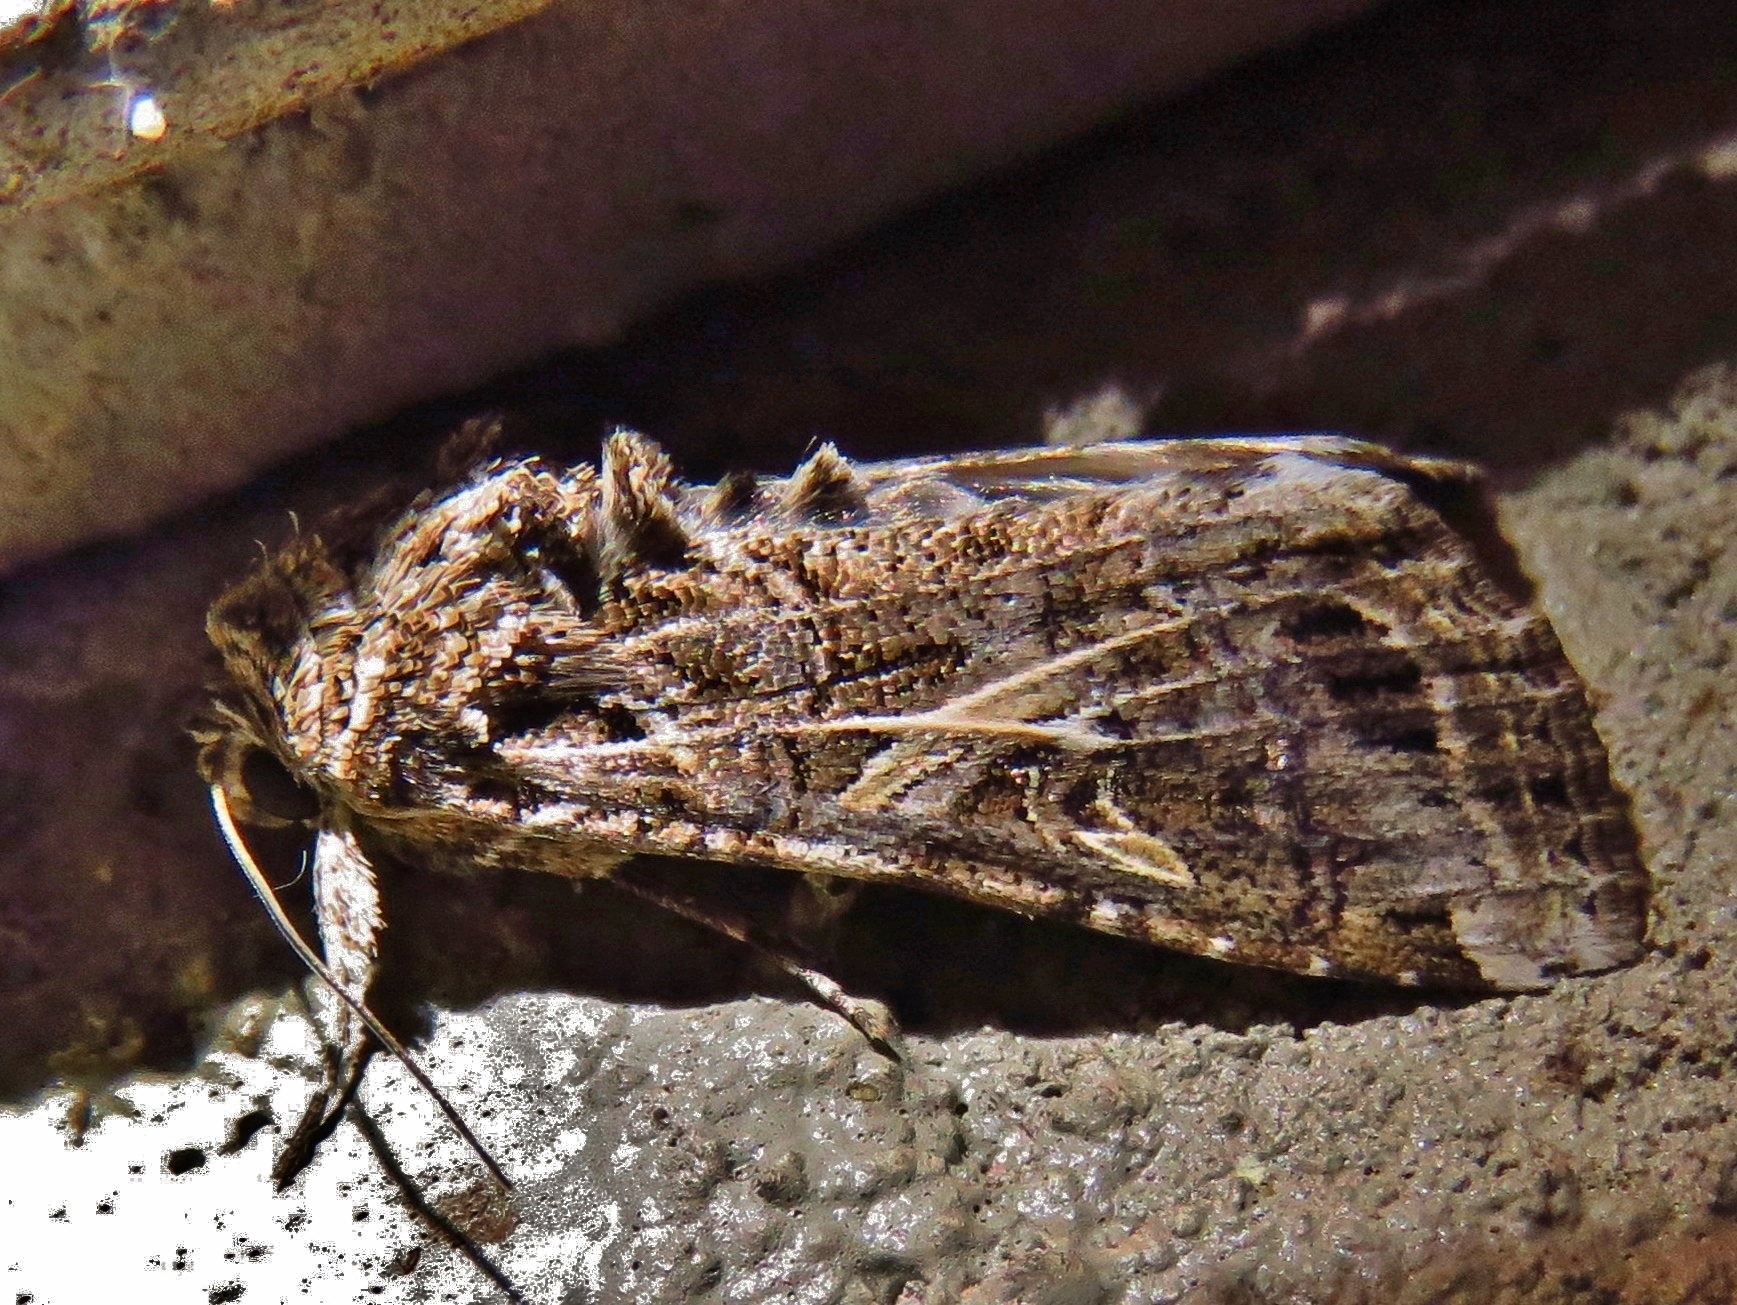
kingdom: Animalia
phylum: Arthropoda
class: Insecta
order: Lepidoptera
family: Noctuidae
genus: Spodoptera
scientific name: Spodoptera ornithogalli
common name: Yellow-striped armyworm
